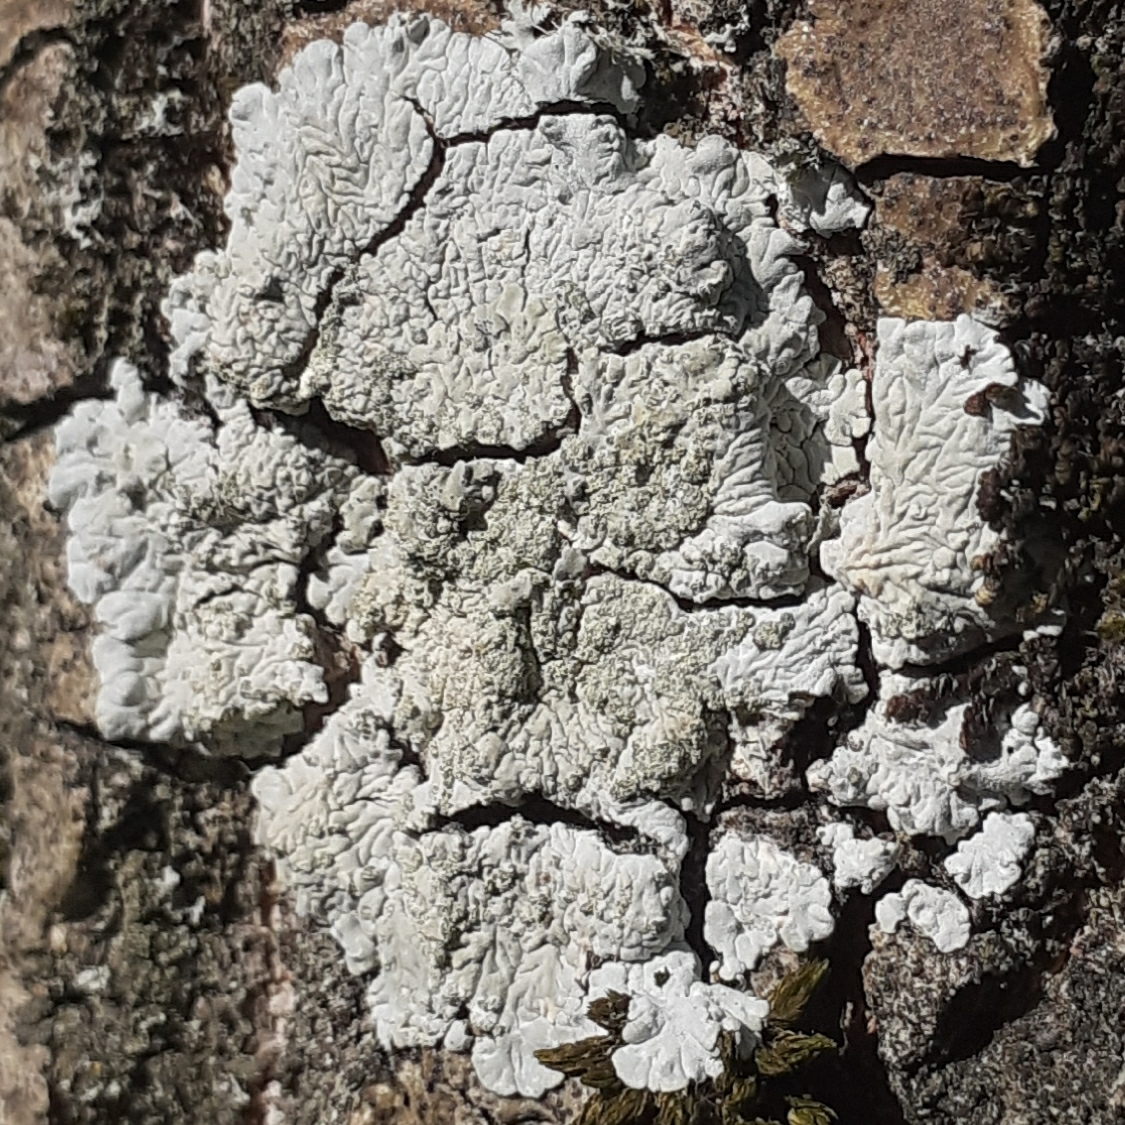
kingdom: Fungi
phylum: Ascomycota
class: Lecanoromycetes
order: Caliciales
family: Caliciaceae
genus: Diploicia
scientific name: Diploicia canescens
